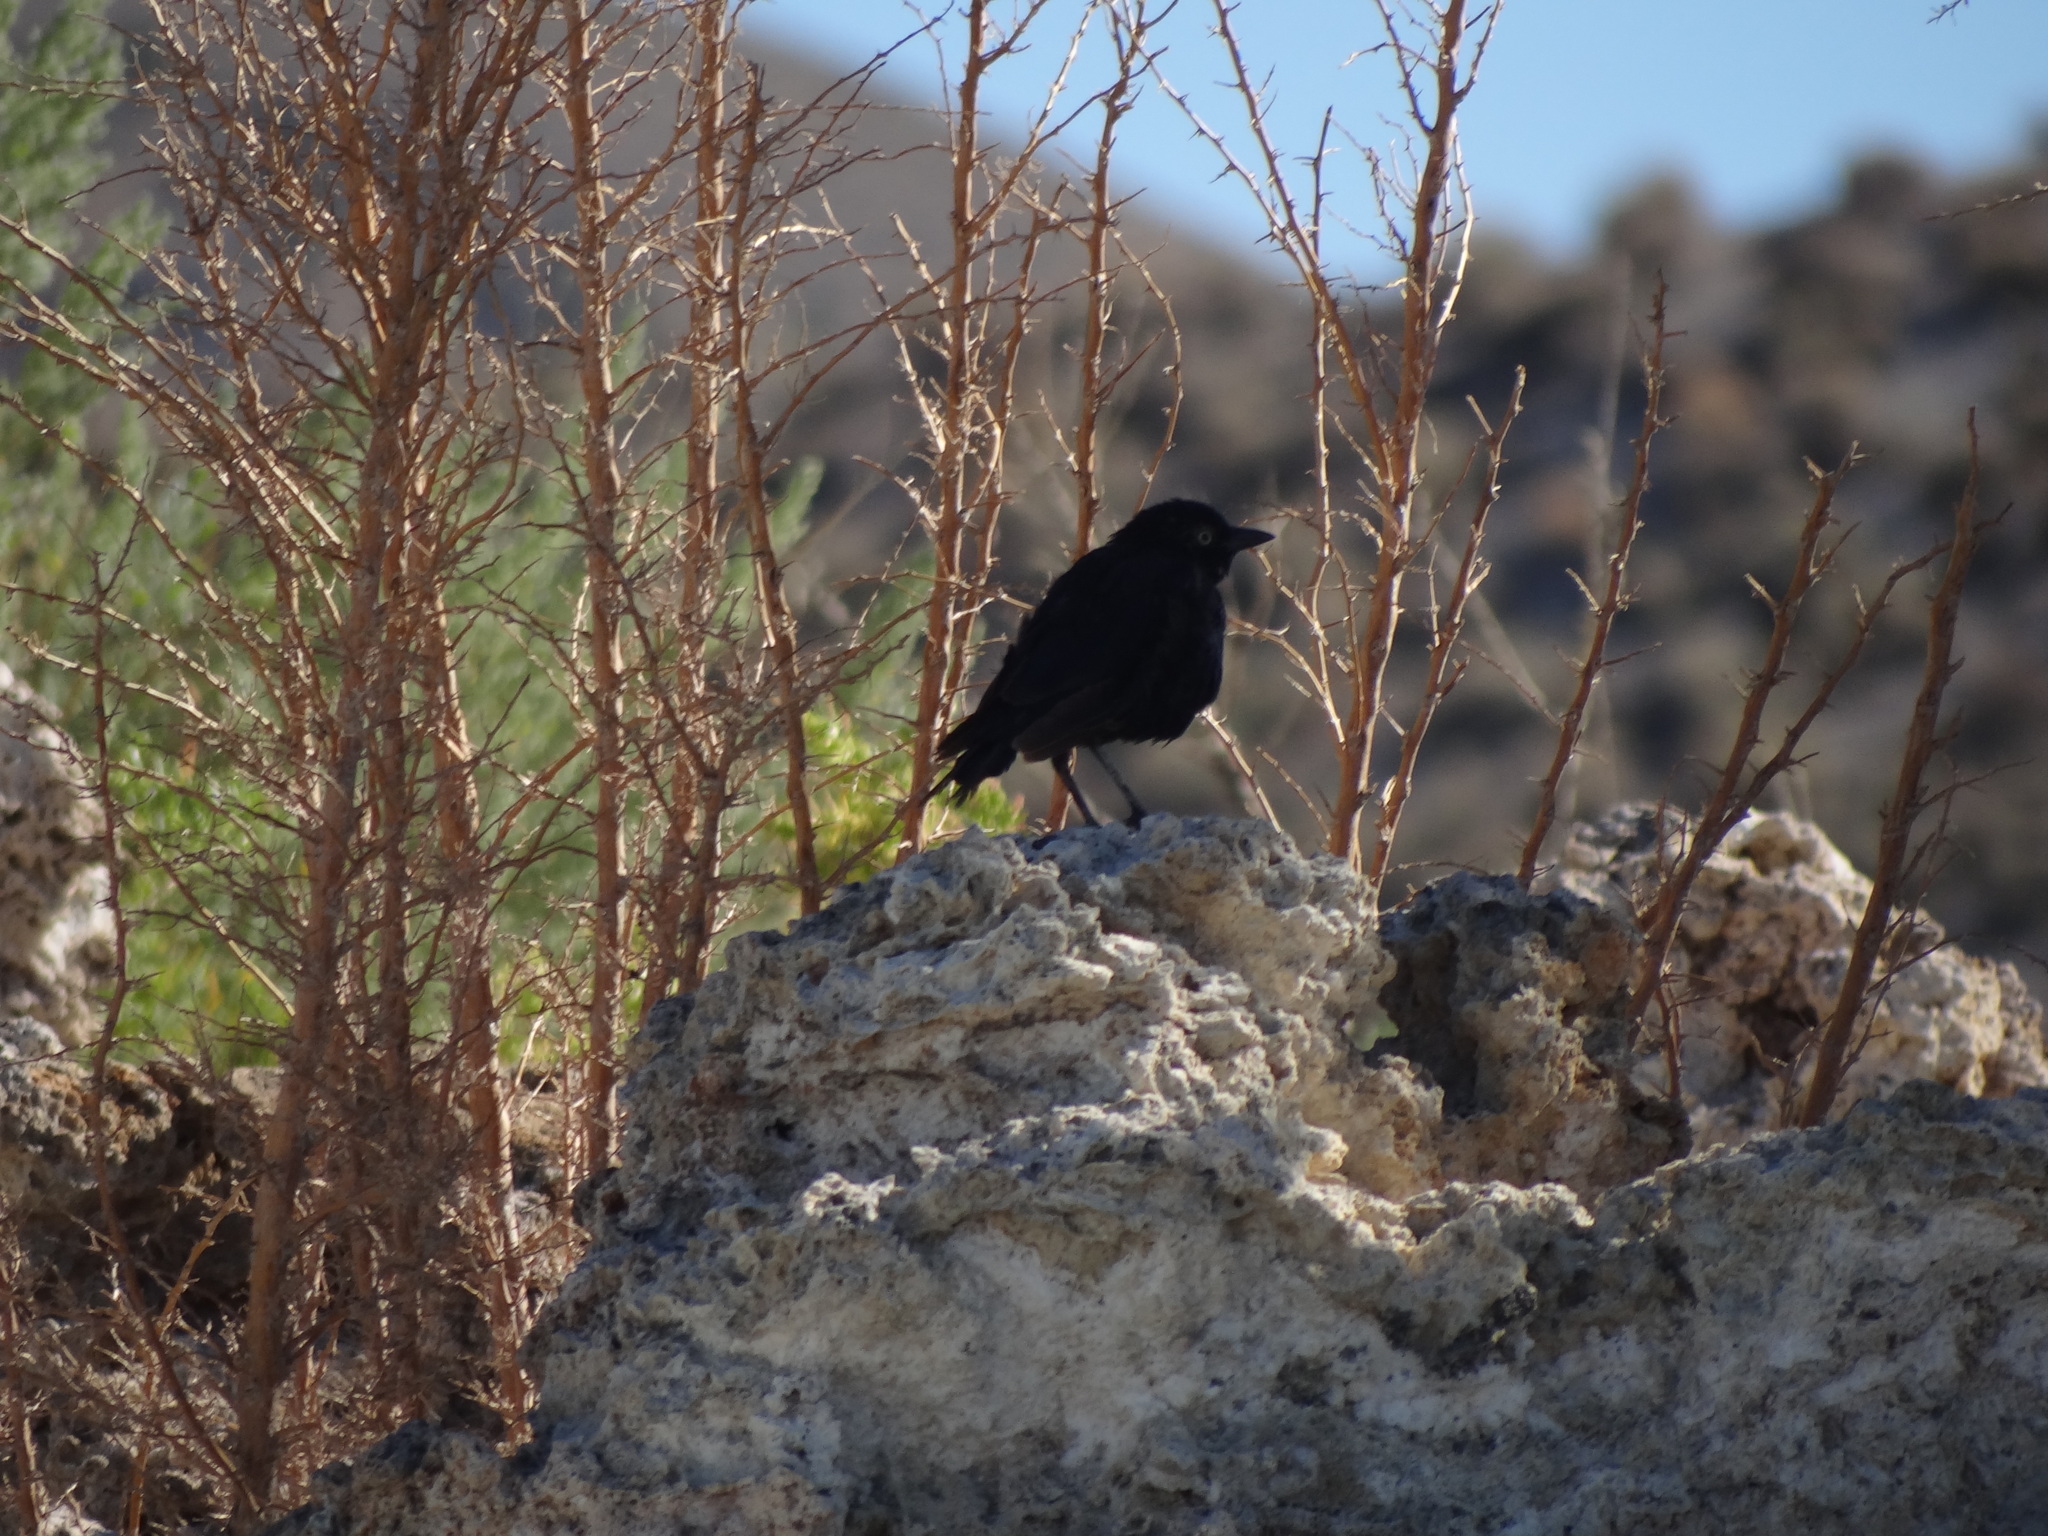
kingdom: Animalia
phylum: Chordata
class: Aves
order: Passeriformes
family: Icteridae
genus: Euphagus
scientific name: Euphagus cyanocephalus
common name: Brewer's blackbird
